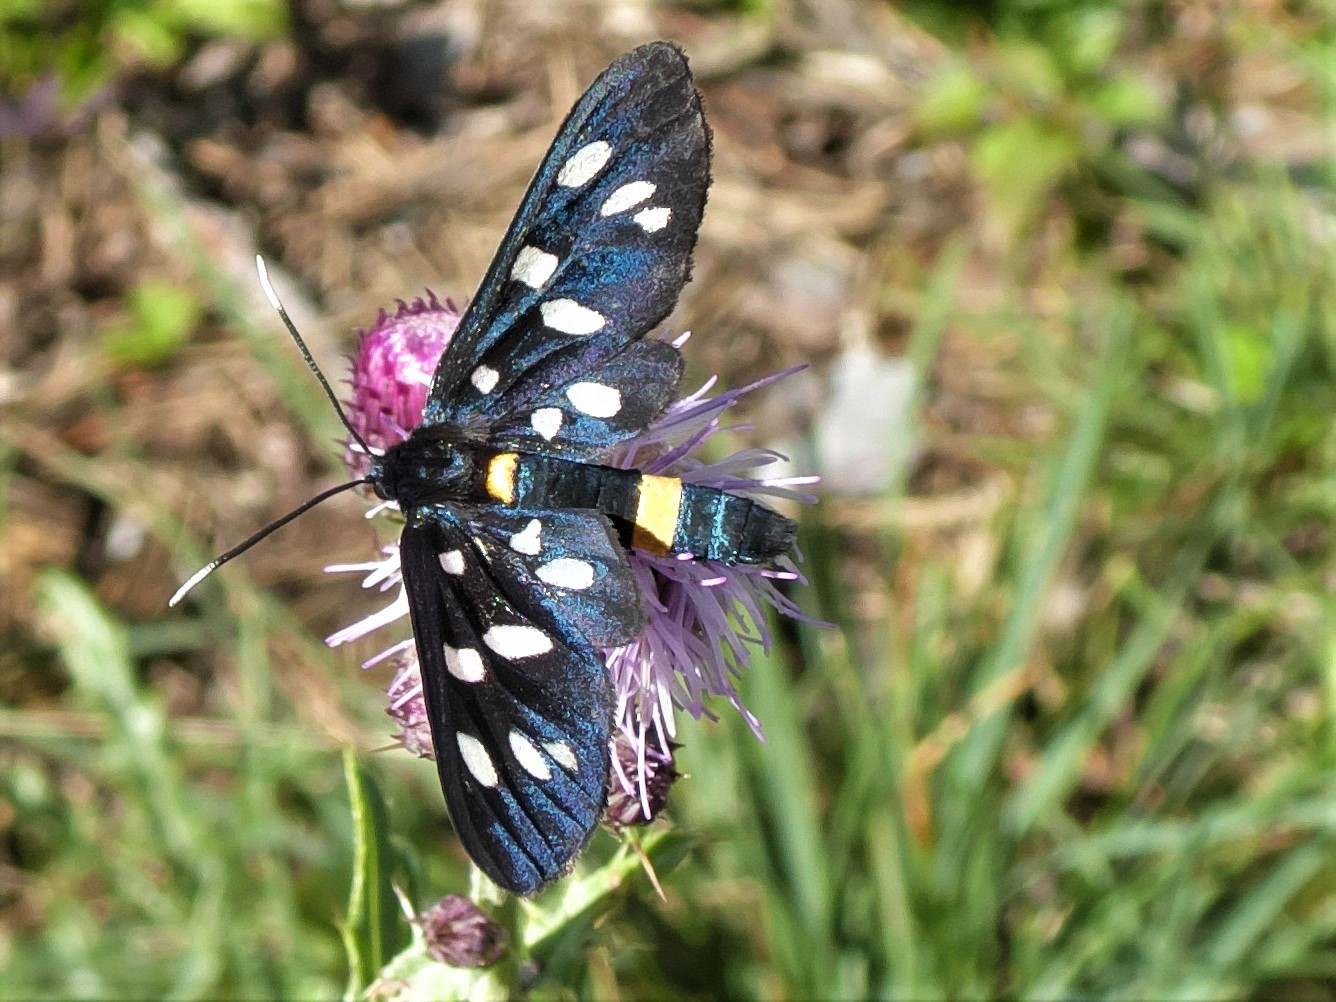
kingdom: Animalia
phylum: Arthropoda
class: Insecta
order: Lepidoptera
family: Erebidae
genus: Amata
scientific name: Amata phegea
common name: Nine-spotted
